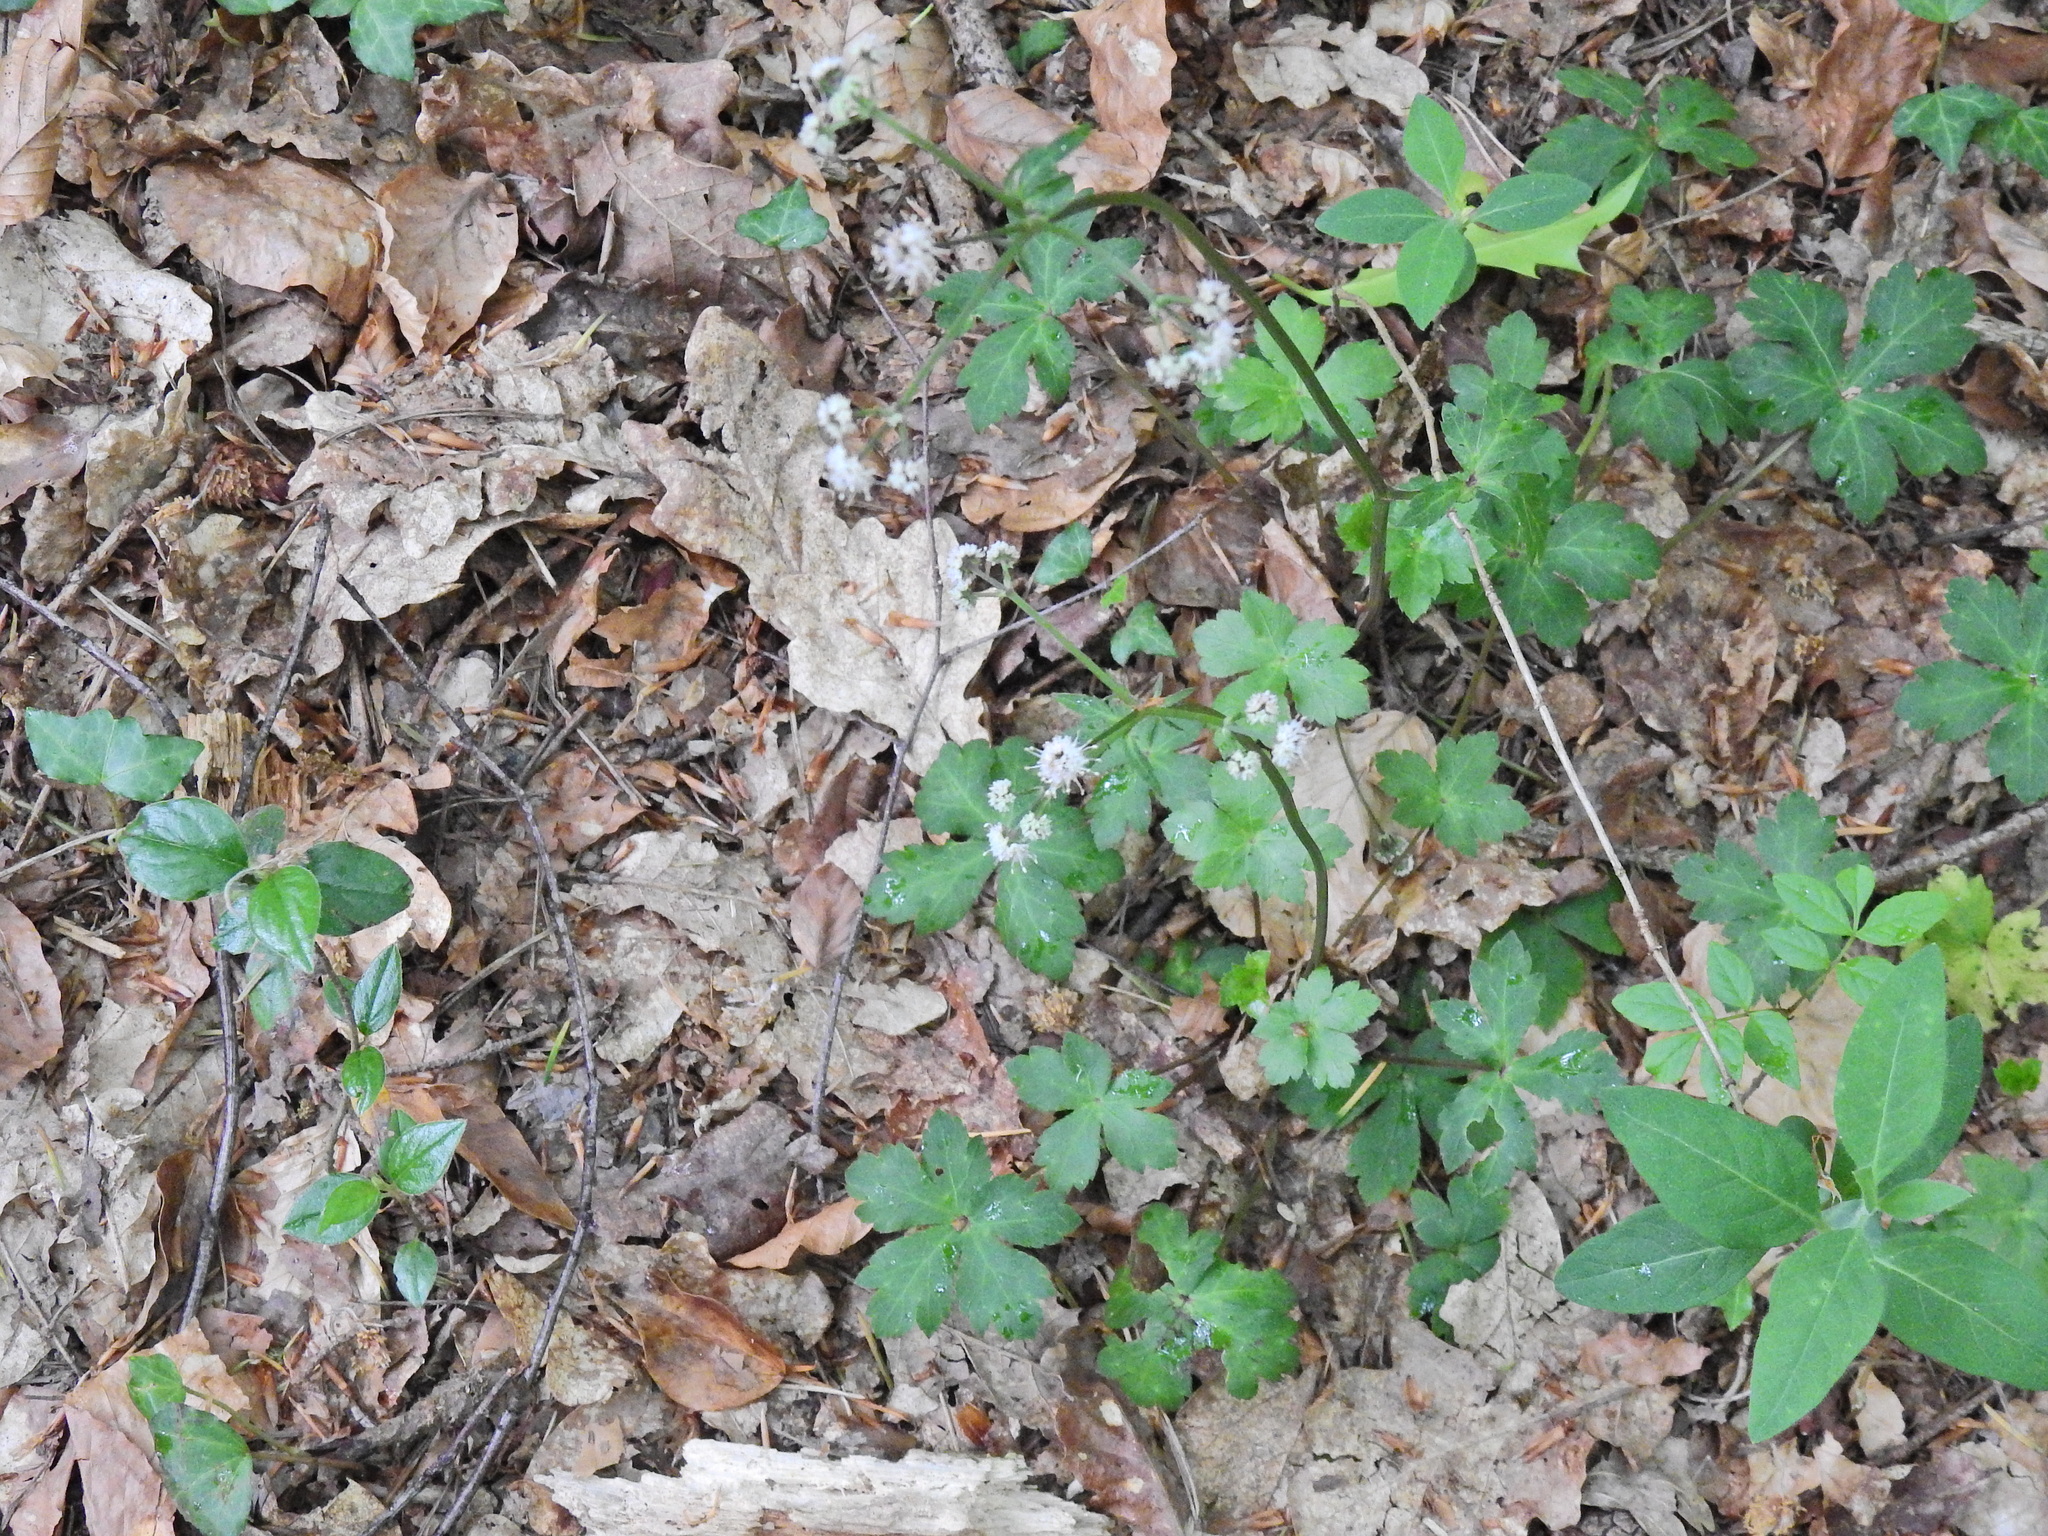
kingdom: Plantae
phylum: Tracheophyta
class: Magnoliopsida
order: Apiales
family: Apiaceae
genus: Sanicula
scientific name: Sanicula europaea
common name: Sanicle
